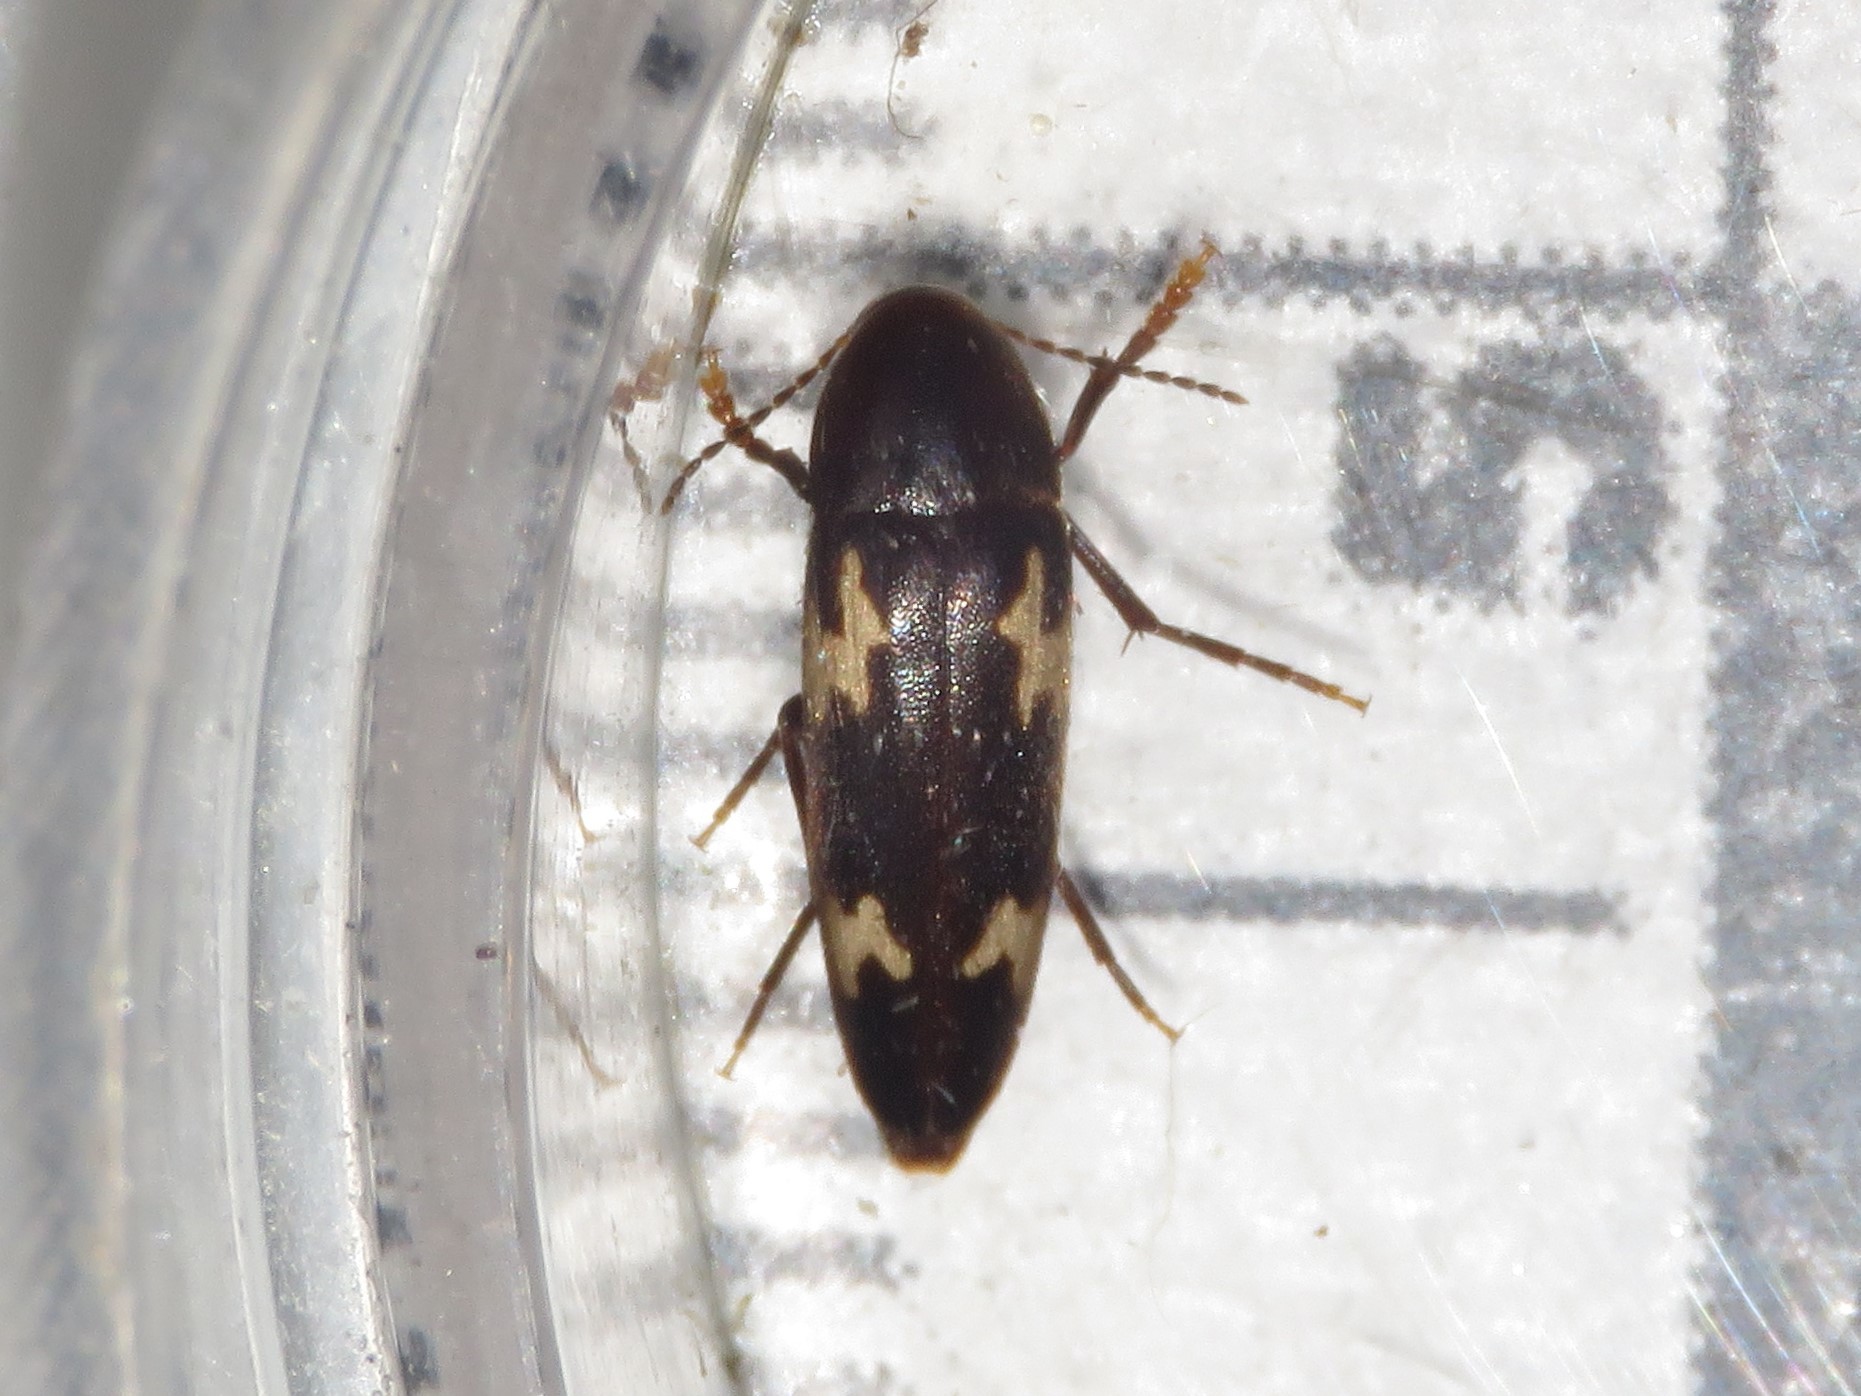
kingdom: Animalia
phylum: Arthropoda
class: Insecta
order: Coleoptera
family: Melandryidae
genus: Dircaea
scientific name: Dircaea liturata
